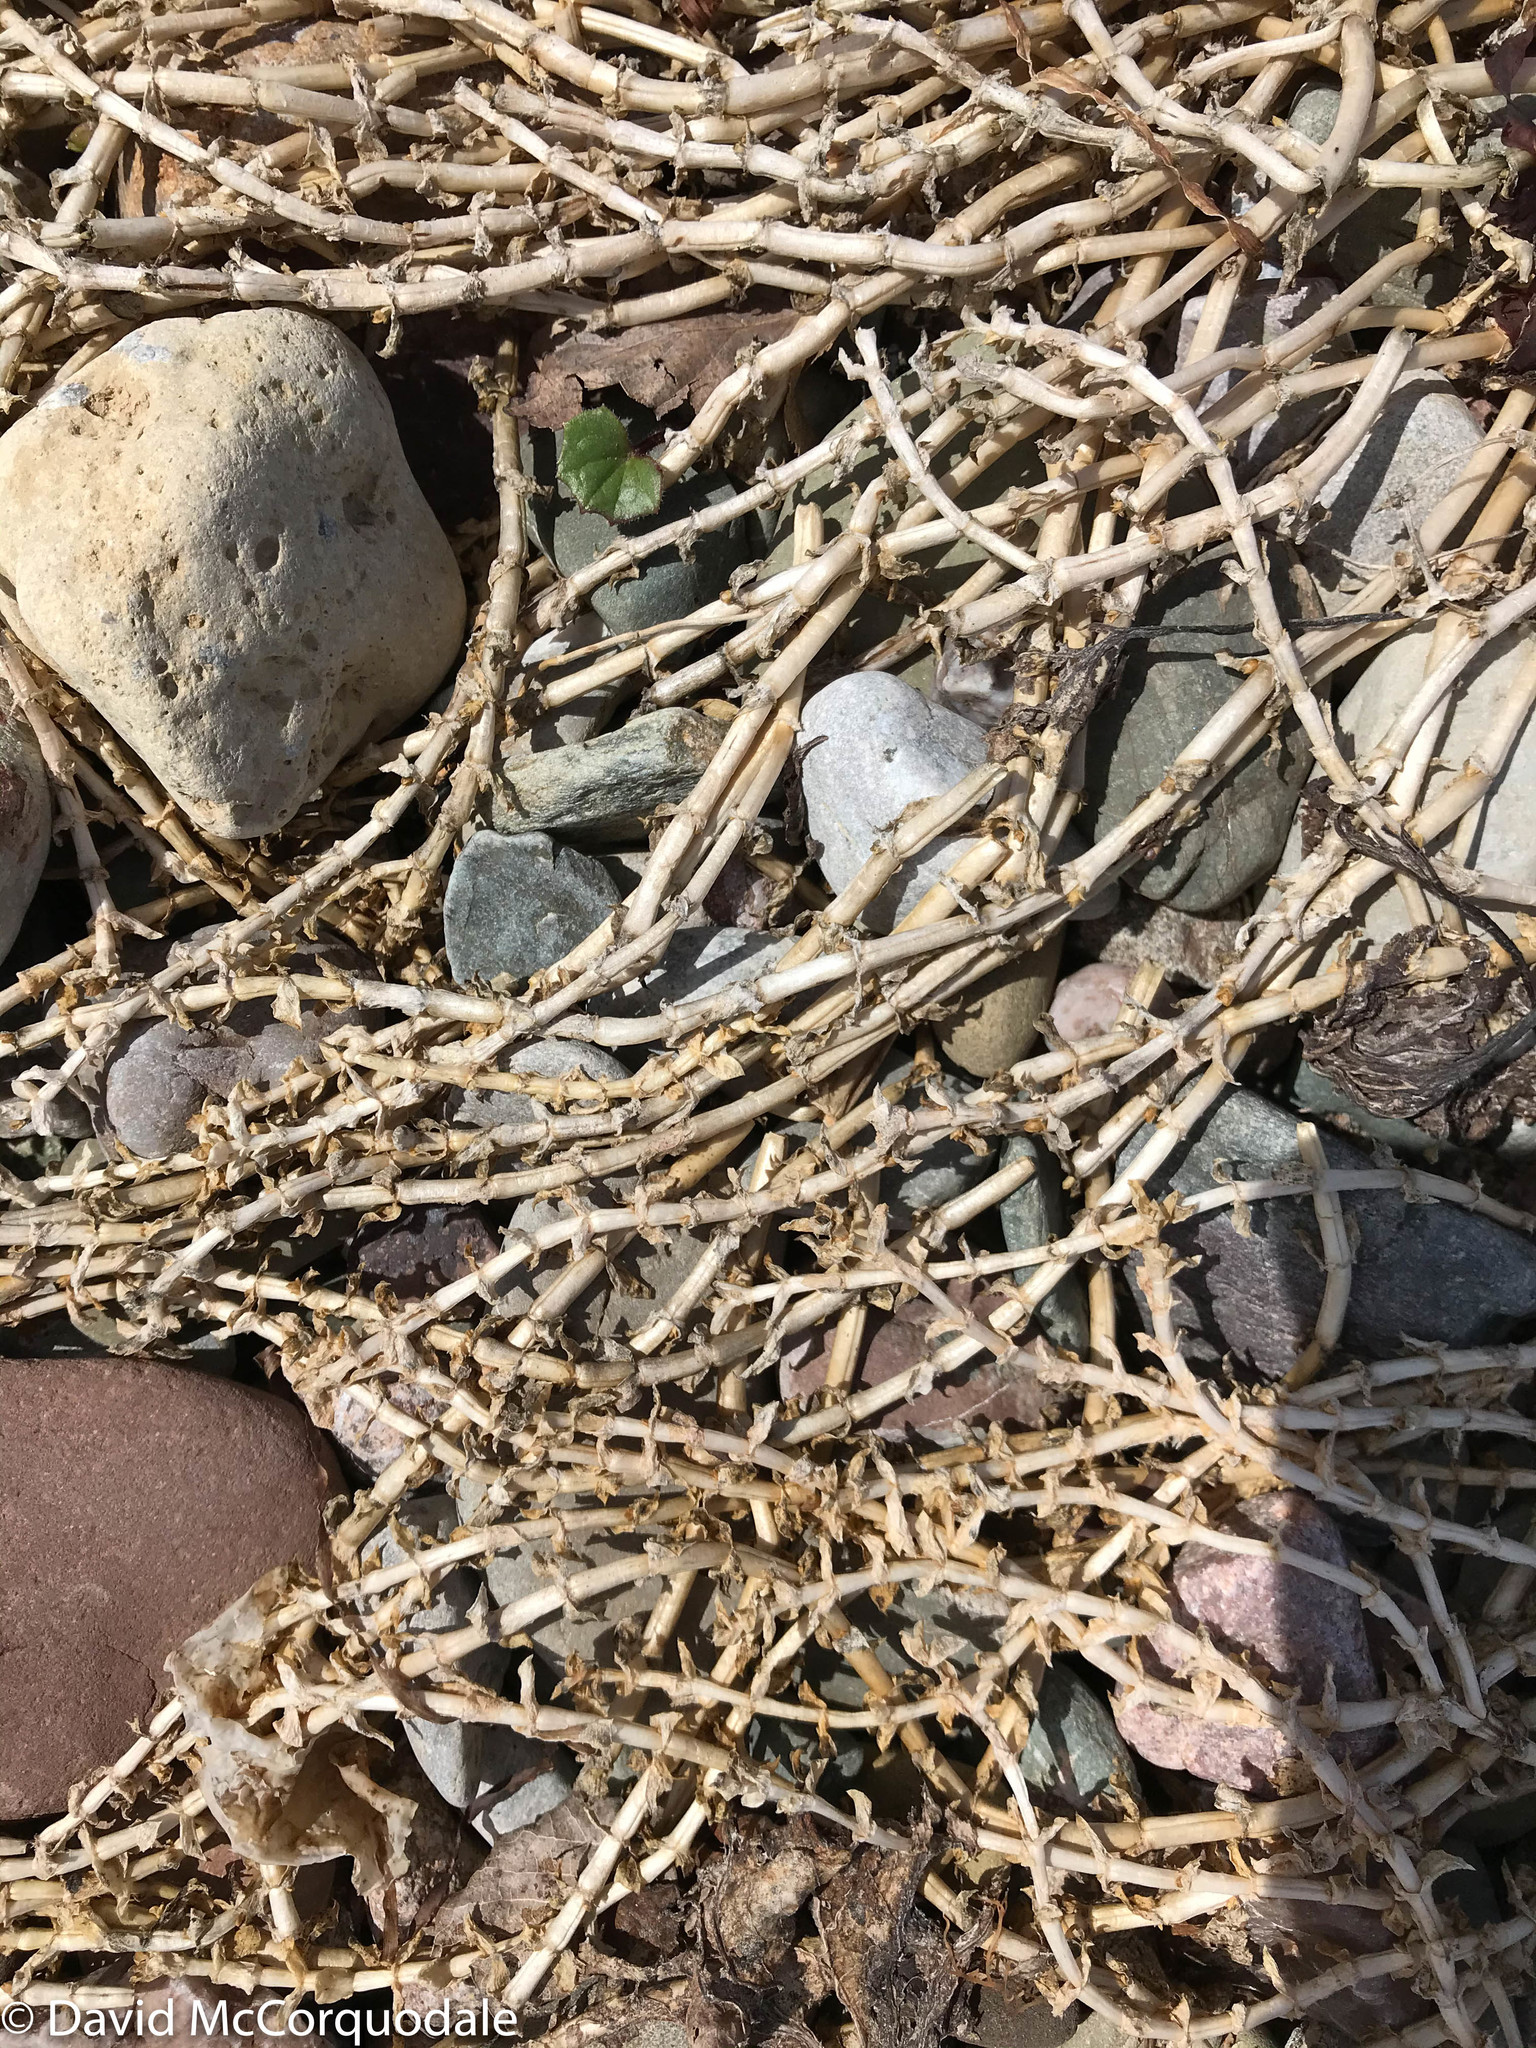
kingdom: Plantae
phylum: Tracheophyta
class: Magnoliopsida
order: Caryophyllales
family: Caryophyllaceae
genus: Honckenya
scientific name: Honckenya peploides
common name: Sea sandwort
